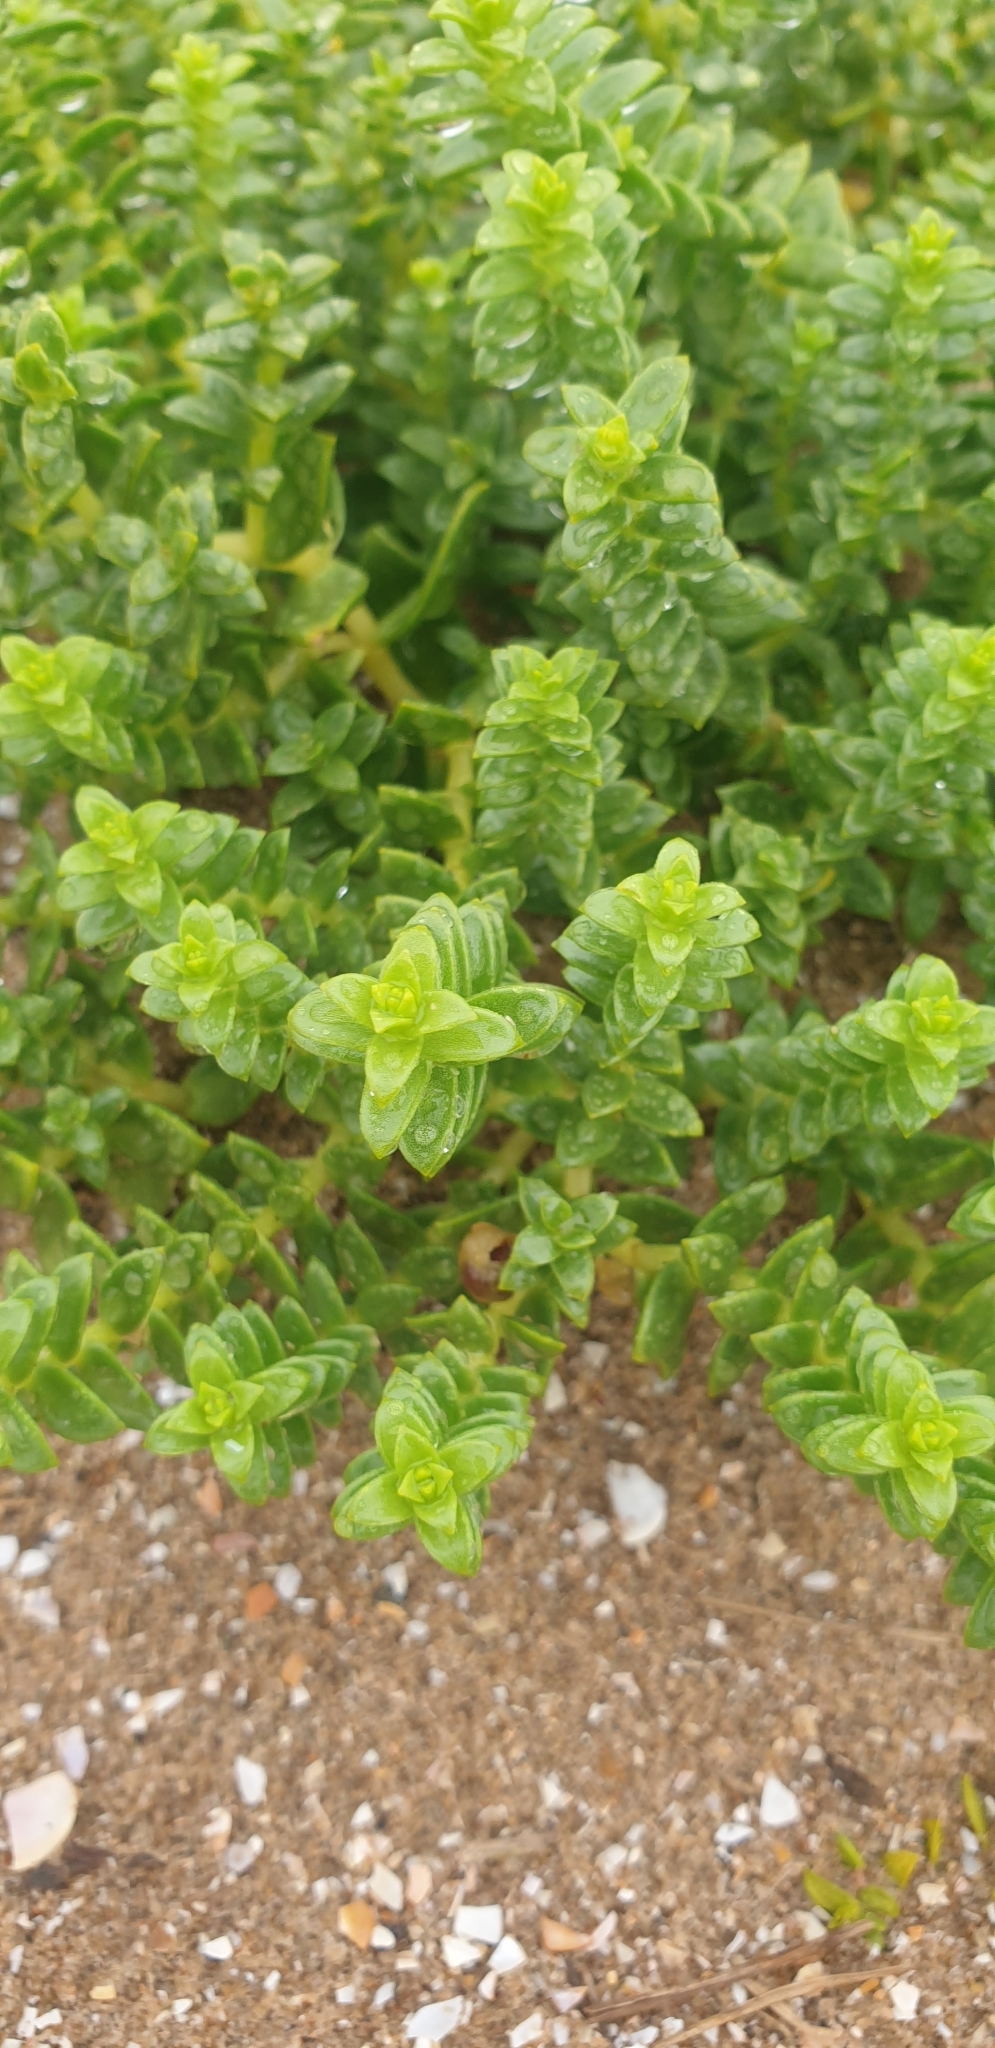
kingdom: Plantae
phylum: Tracheophyta
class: Magnoliopsida
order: Caryophyllales
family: Caryophyllaceae
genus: Honckenya
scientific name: Honckenya peploides
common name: Sea sandwort
